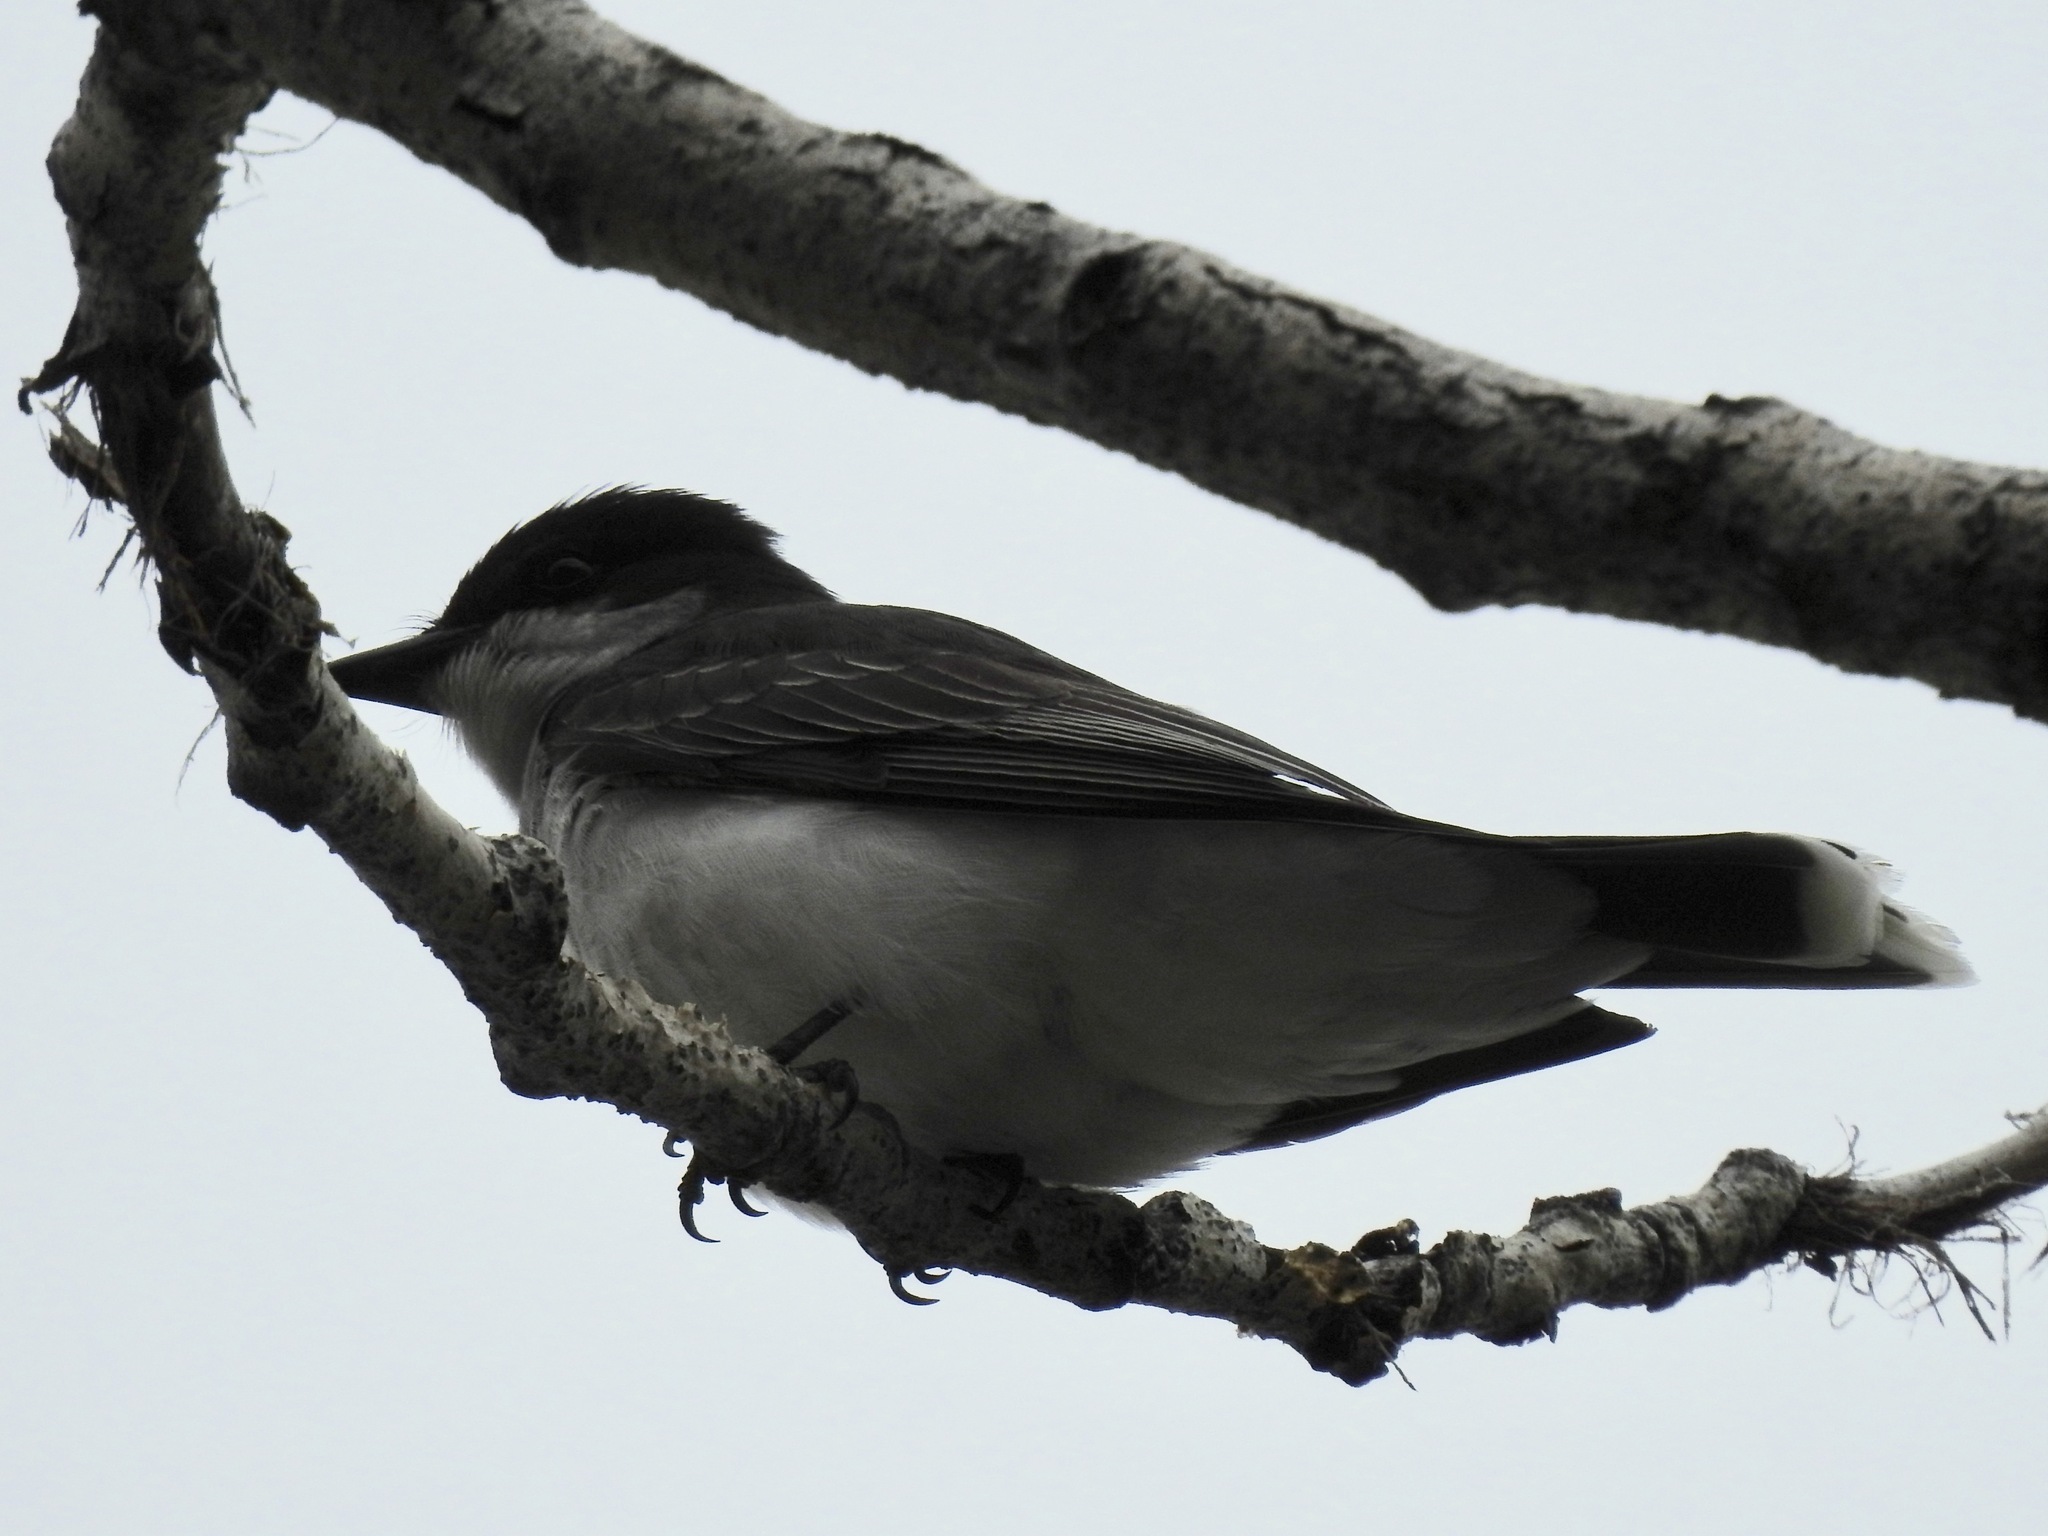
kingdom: Animalia
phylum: Chordata
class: Aves
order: Passeriformes
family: Tyrannidae
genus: Tyrannus
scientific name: Tyrannus tyrannus
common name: Eastern kingbird
